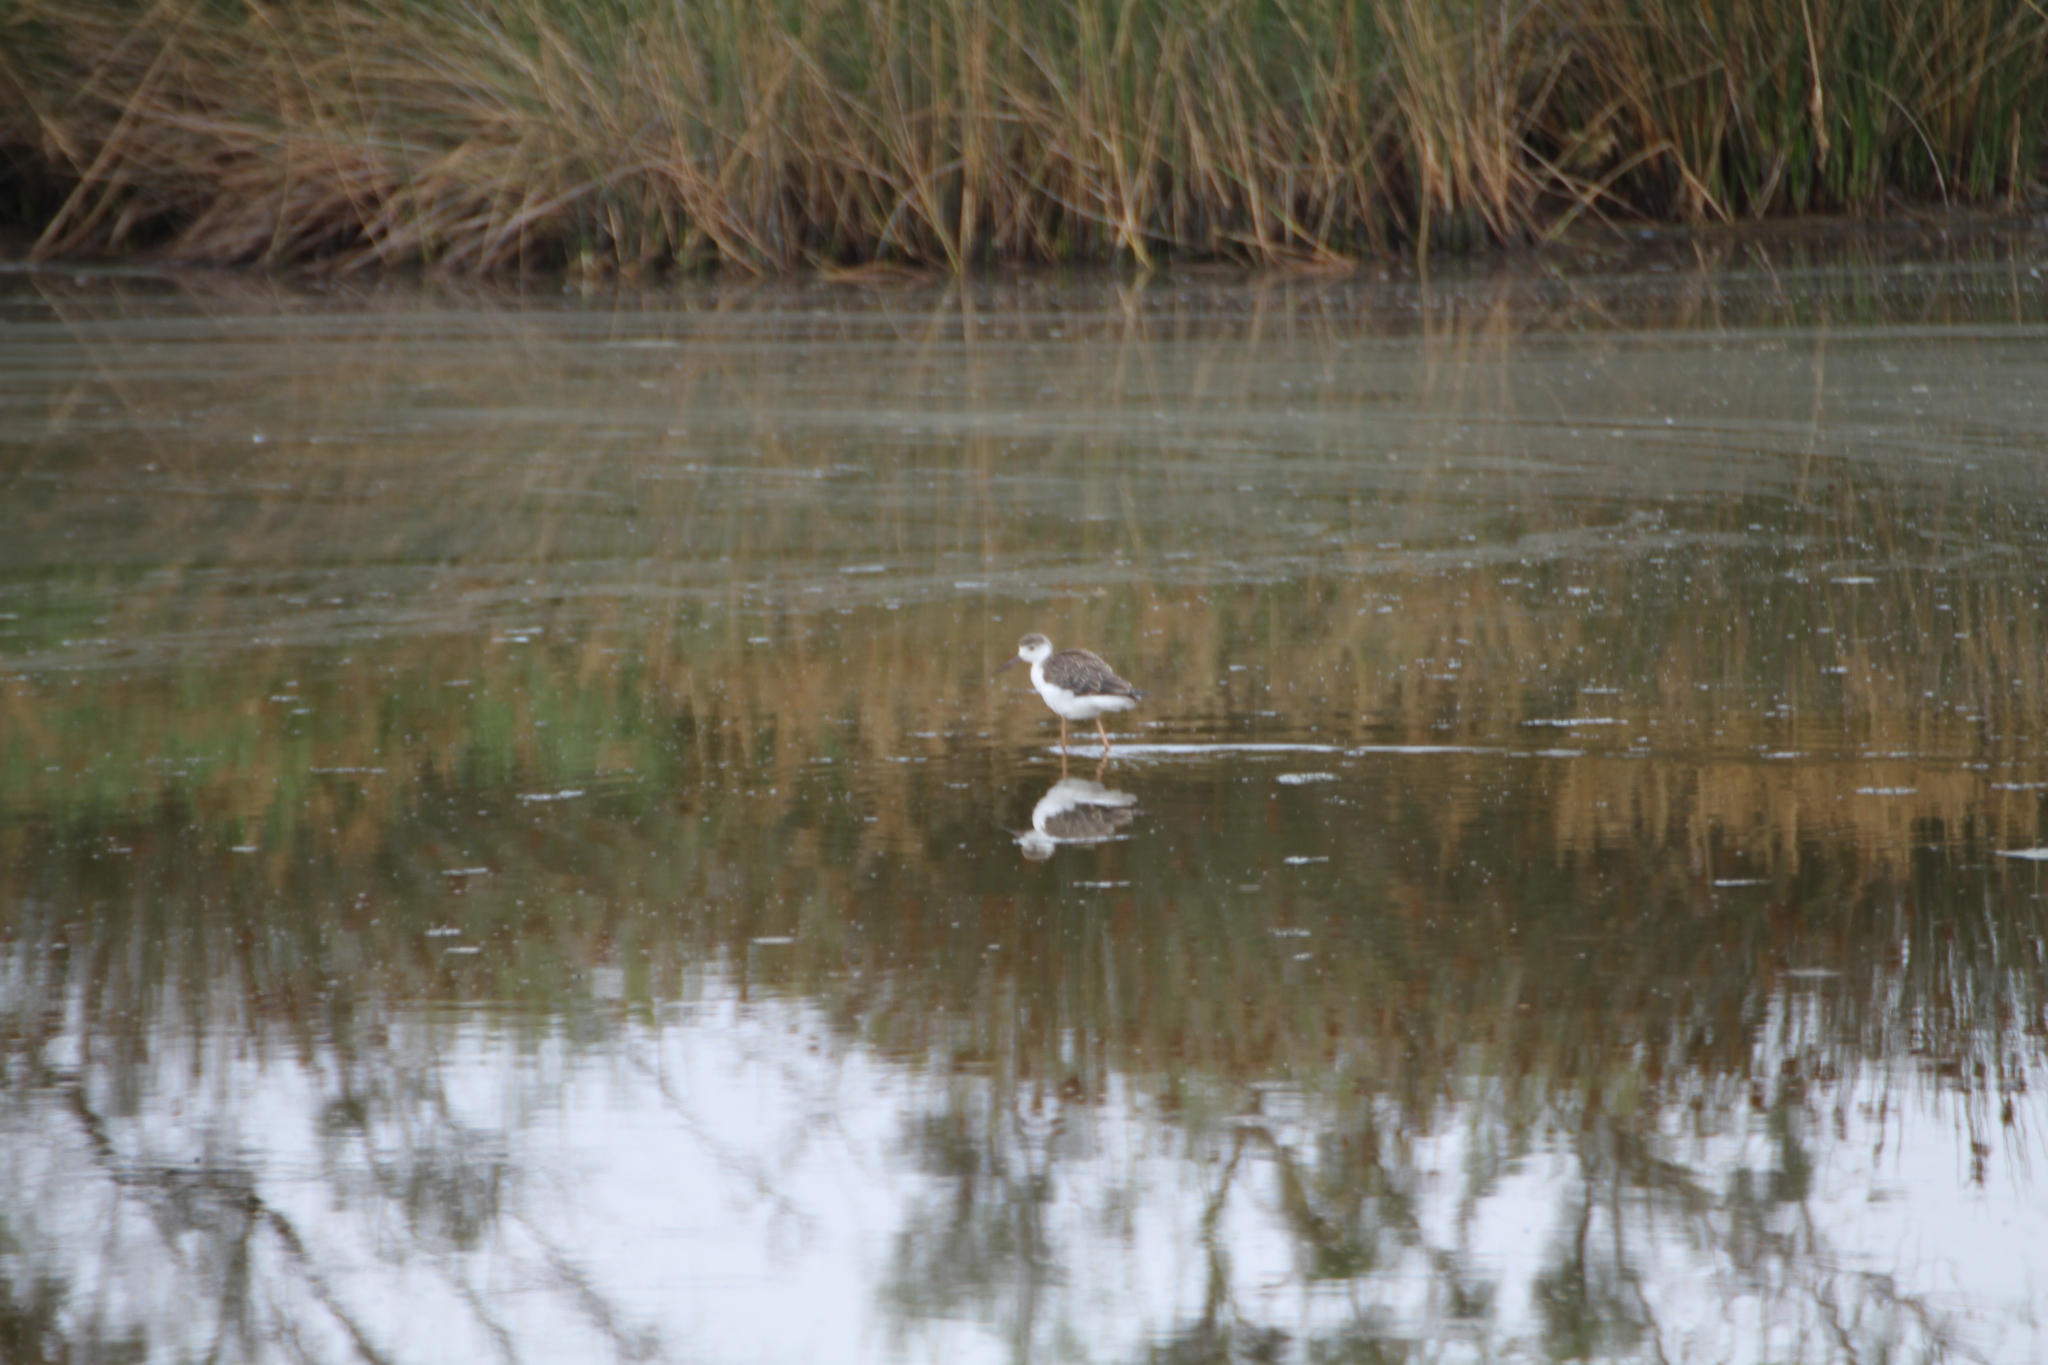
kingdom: Animalia
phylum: Chordata
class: Aves
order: Charadriiformes
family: Recurvirostridae
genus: Himantopus
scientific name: Himantopus himantopus
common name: Black-winged stilt
